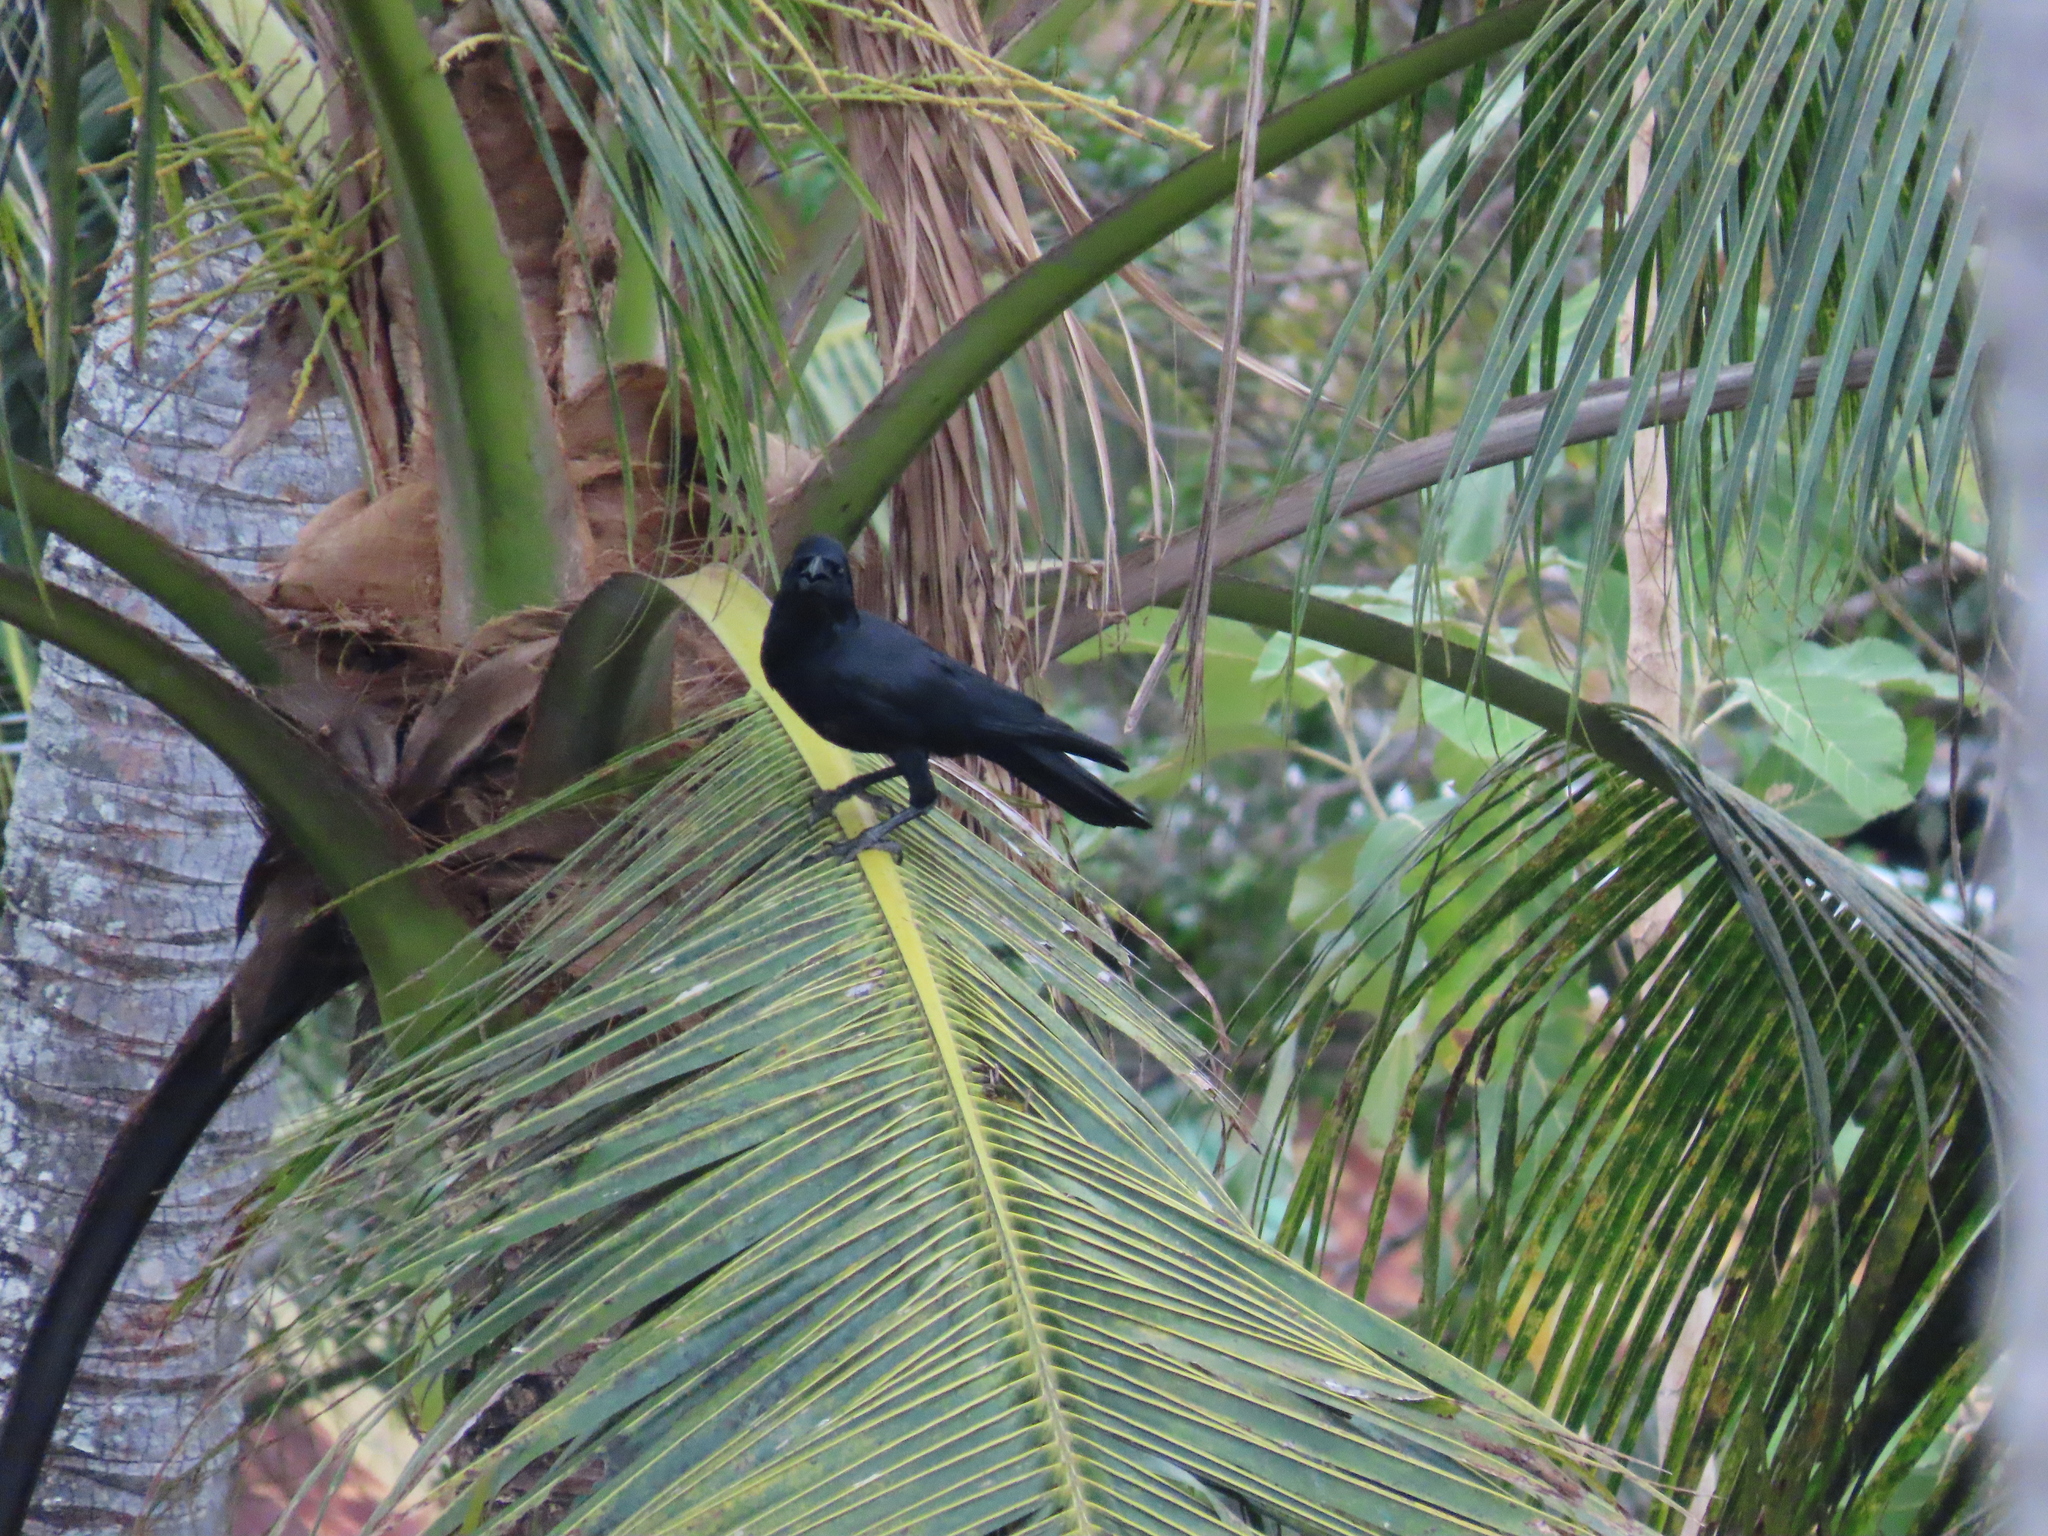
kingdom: Animalia
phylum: Chordata
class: Aves
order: Passeriformes
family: Corvidae
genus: Corvus
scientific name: Corvus macrorhynchos
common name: Large-billed crow
